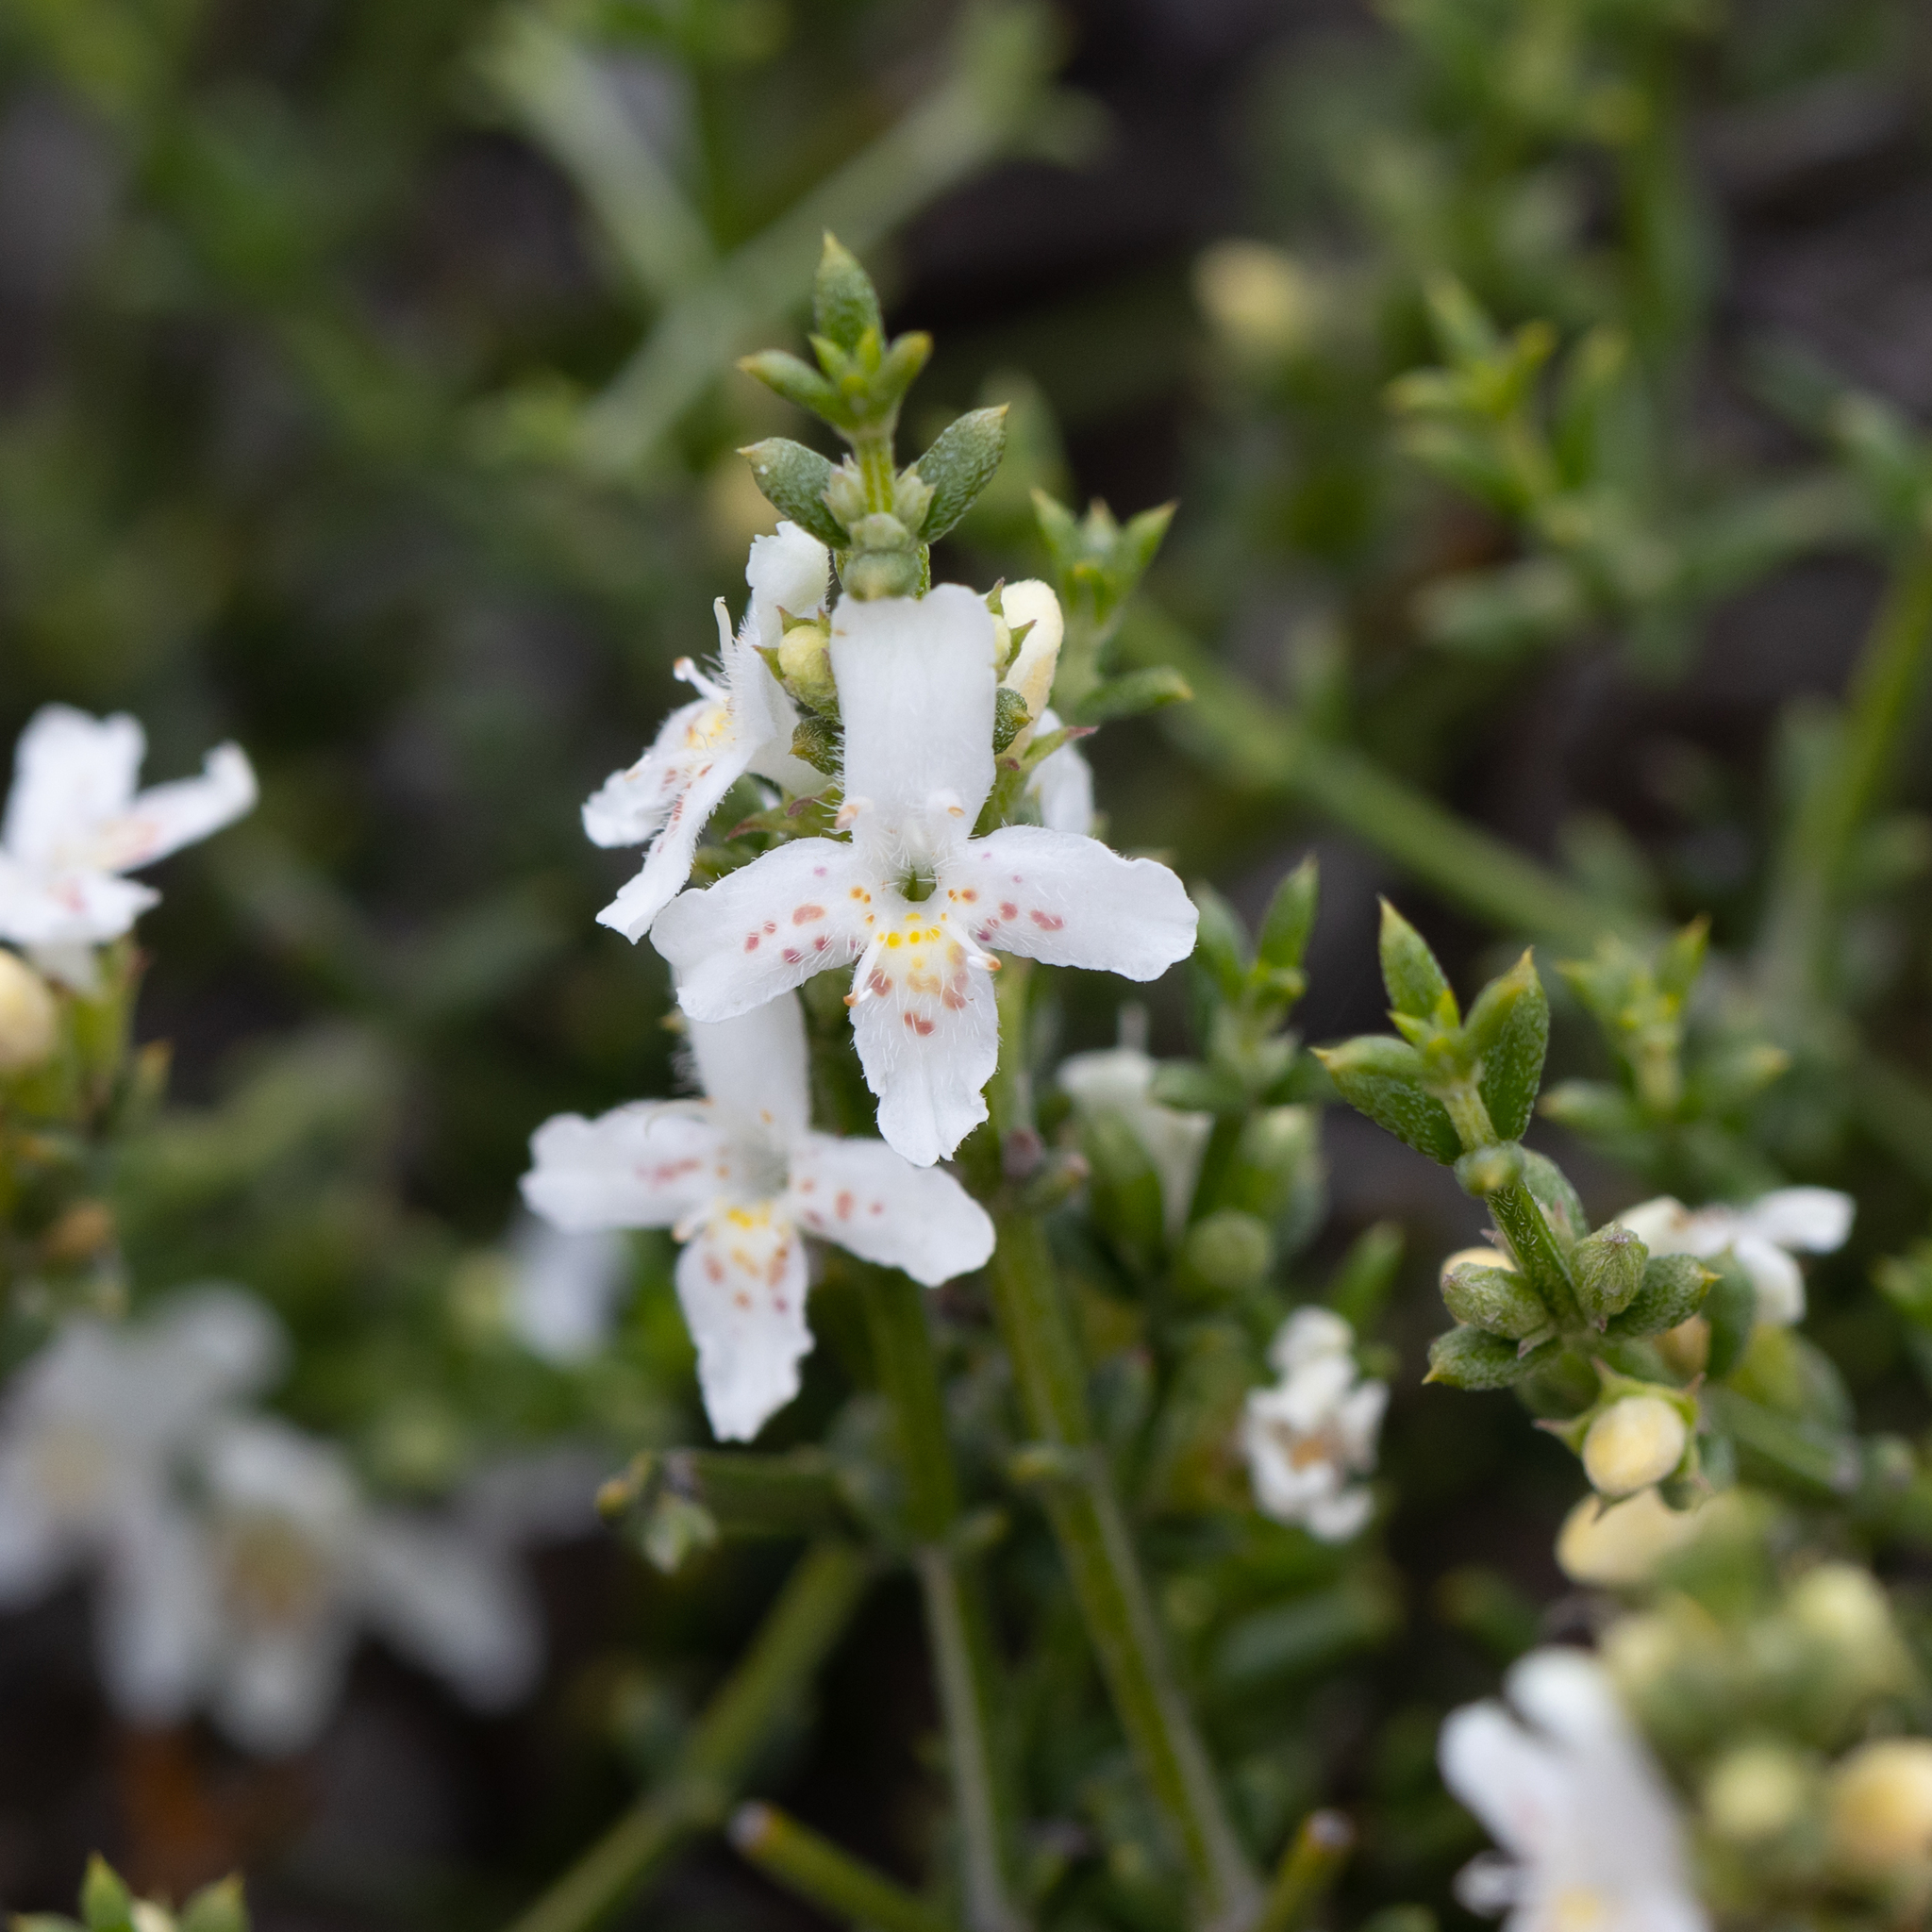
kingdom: Plantae
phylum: Tracheophyta
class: Magnoliopsida
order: Lamiales
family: Lamiaceae
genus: Westringia
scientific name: Westringia rigida
